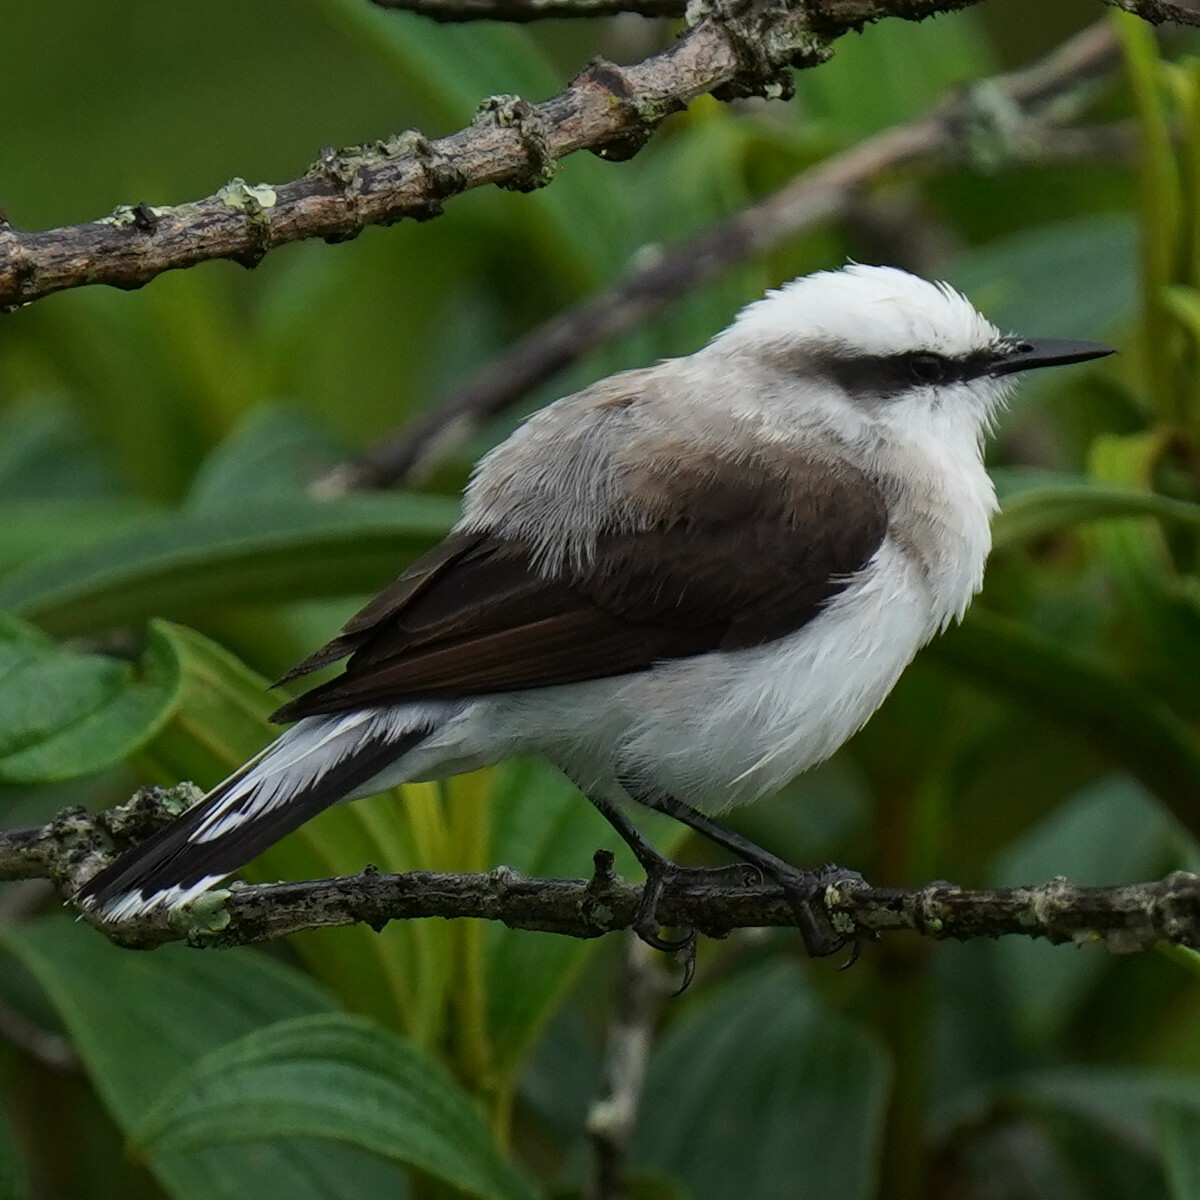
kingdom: Animalia
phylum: Chordata
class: Aves
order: Passeriformes
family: Tyrannidae
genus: Fluvicola
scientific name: Fluvicola nengeta
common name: Masked water tyrant
